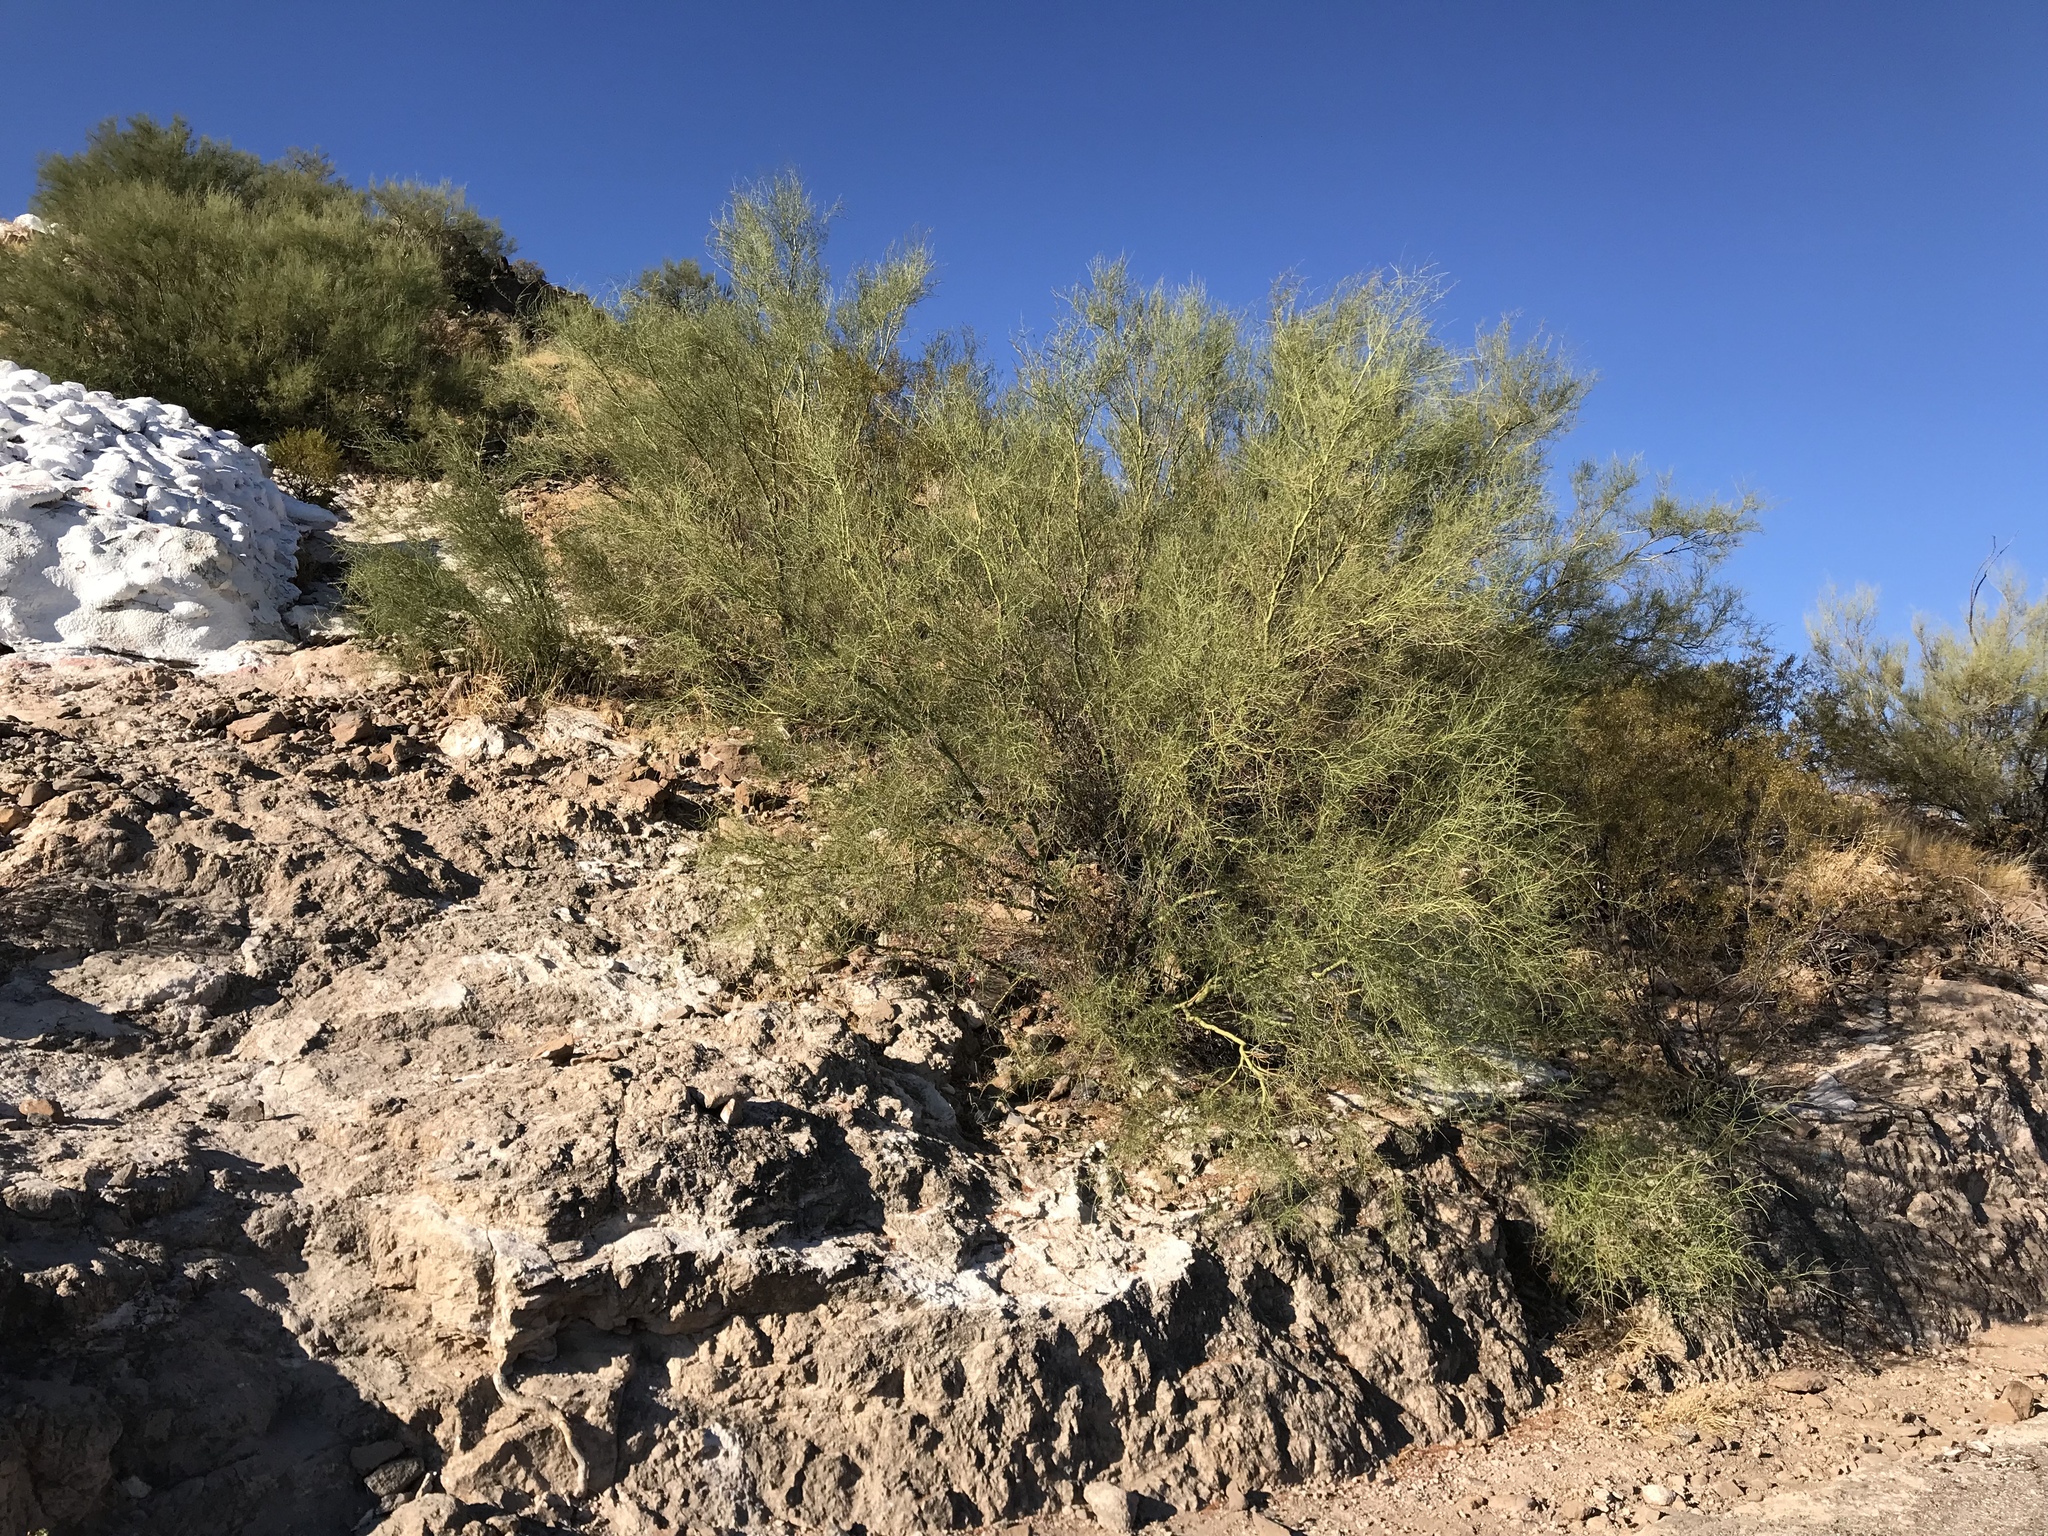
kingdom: Plantae
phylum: Tracheophyta
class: Magnoliopsida
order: Fabales
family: Fabaceae
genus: Parkinsonia
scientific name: Parkinsonia microphylla
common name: Yellow paloverde
